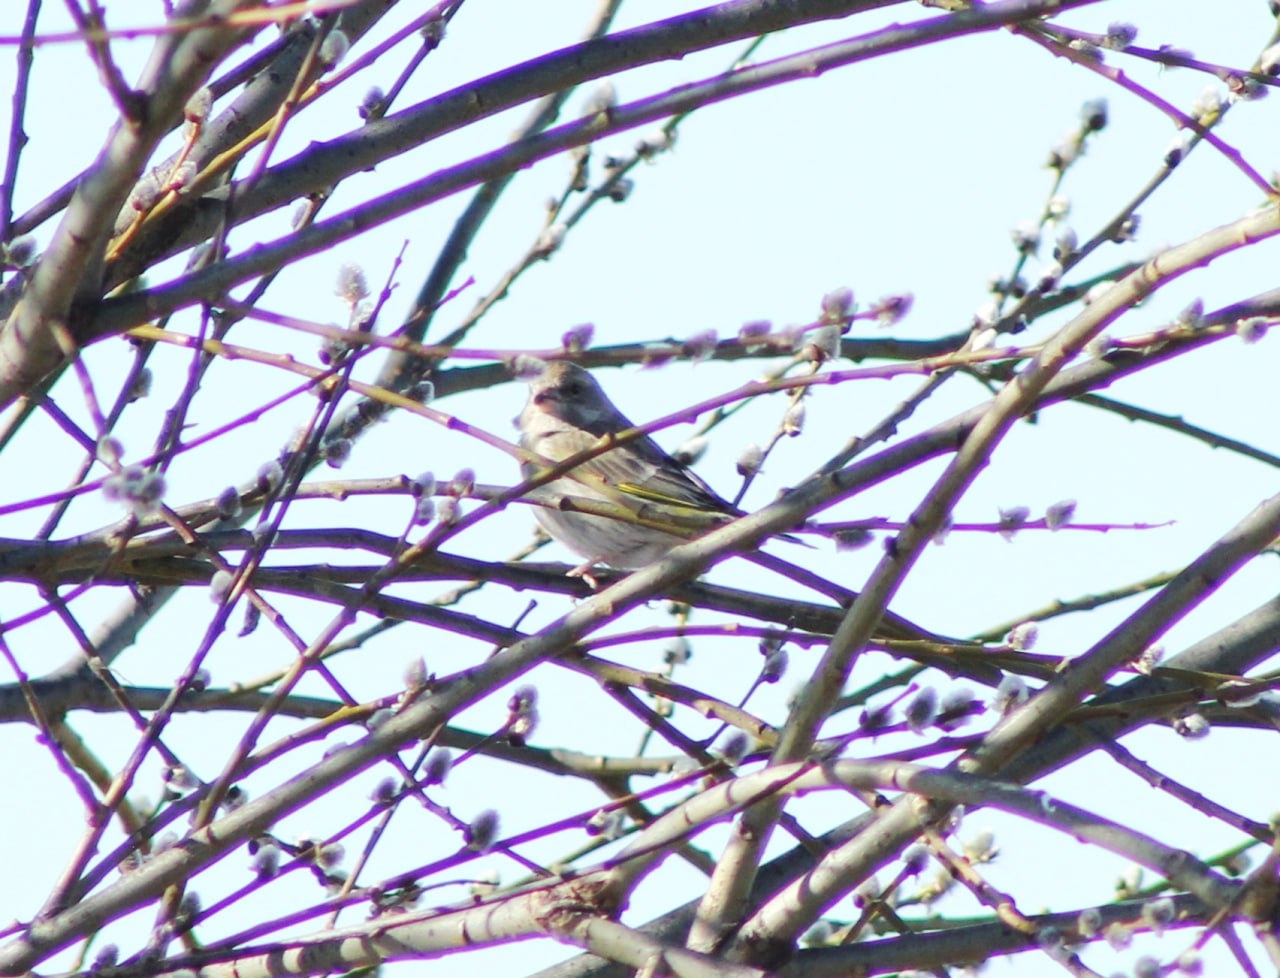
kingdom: Plantae
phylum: Tracheophyta
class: Liliopsida
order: Poales
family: Poaceae
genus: Chloris
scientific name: Chloris chloris
